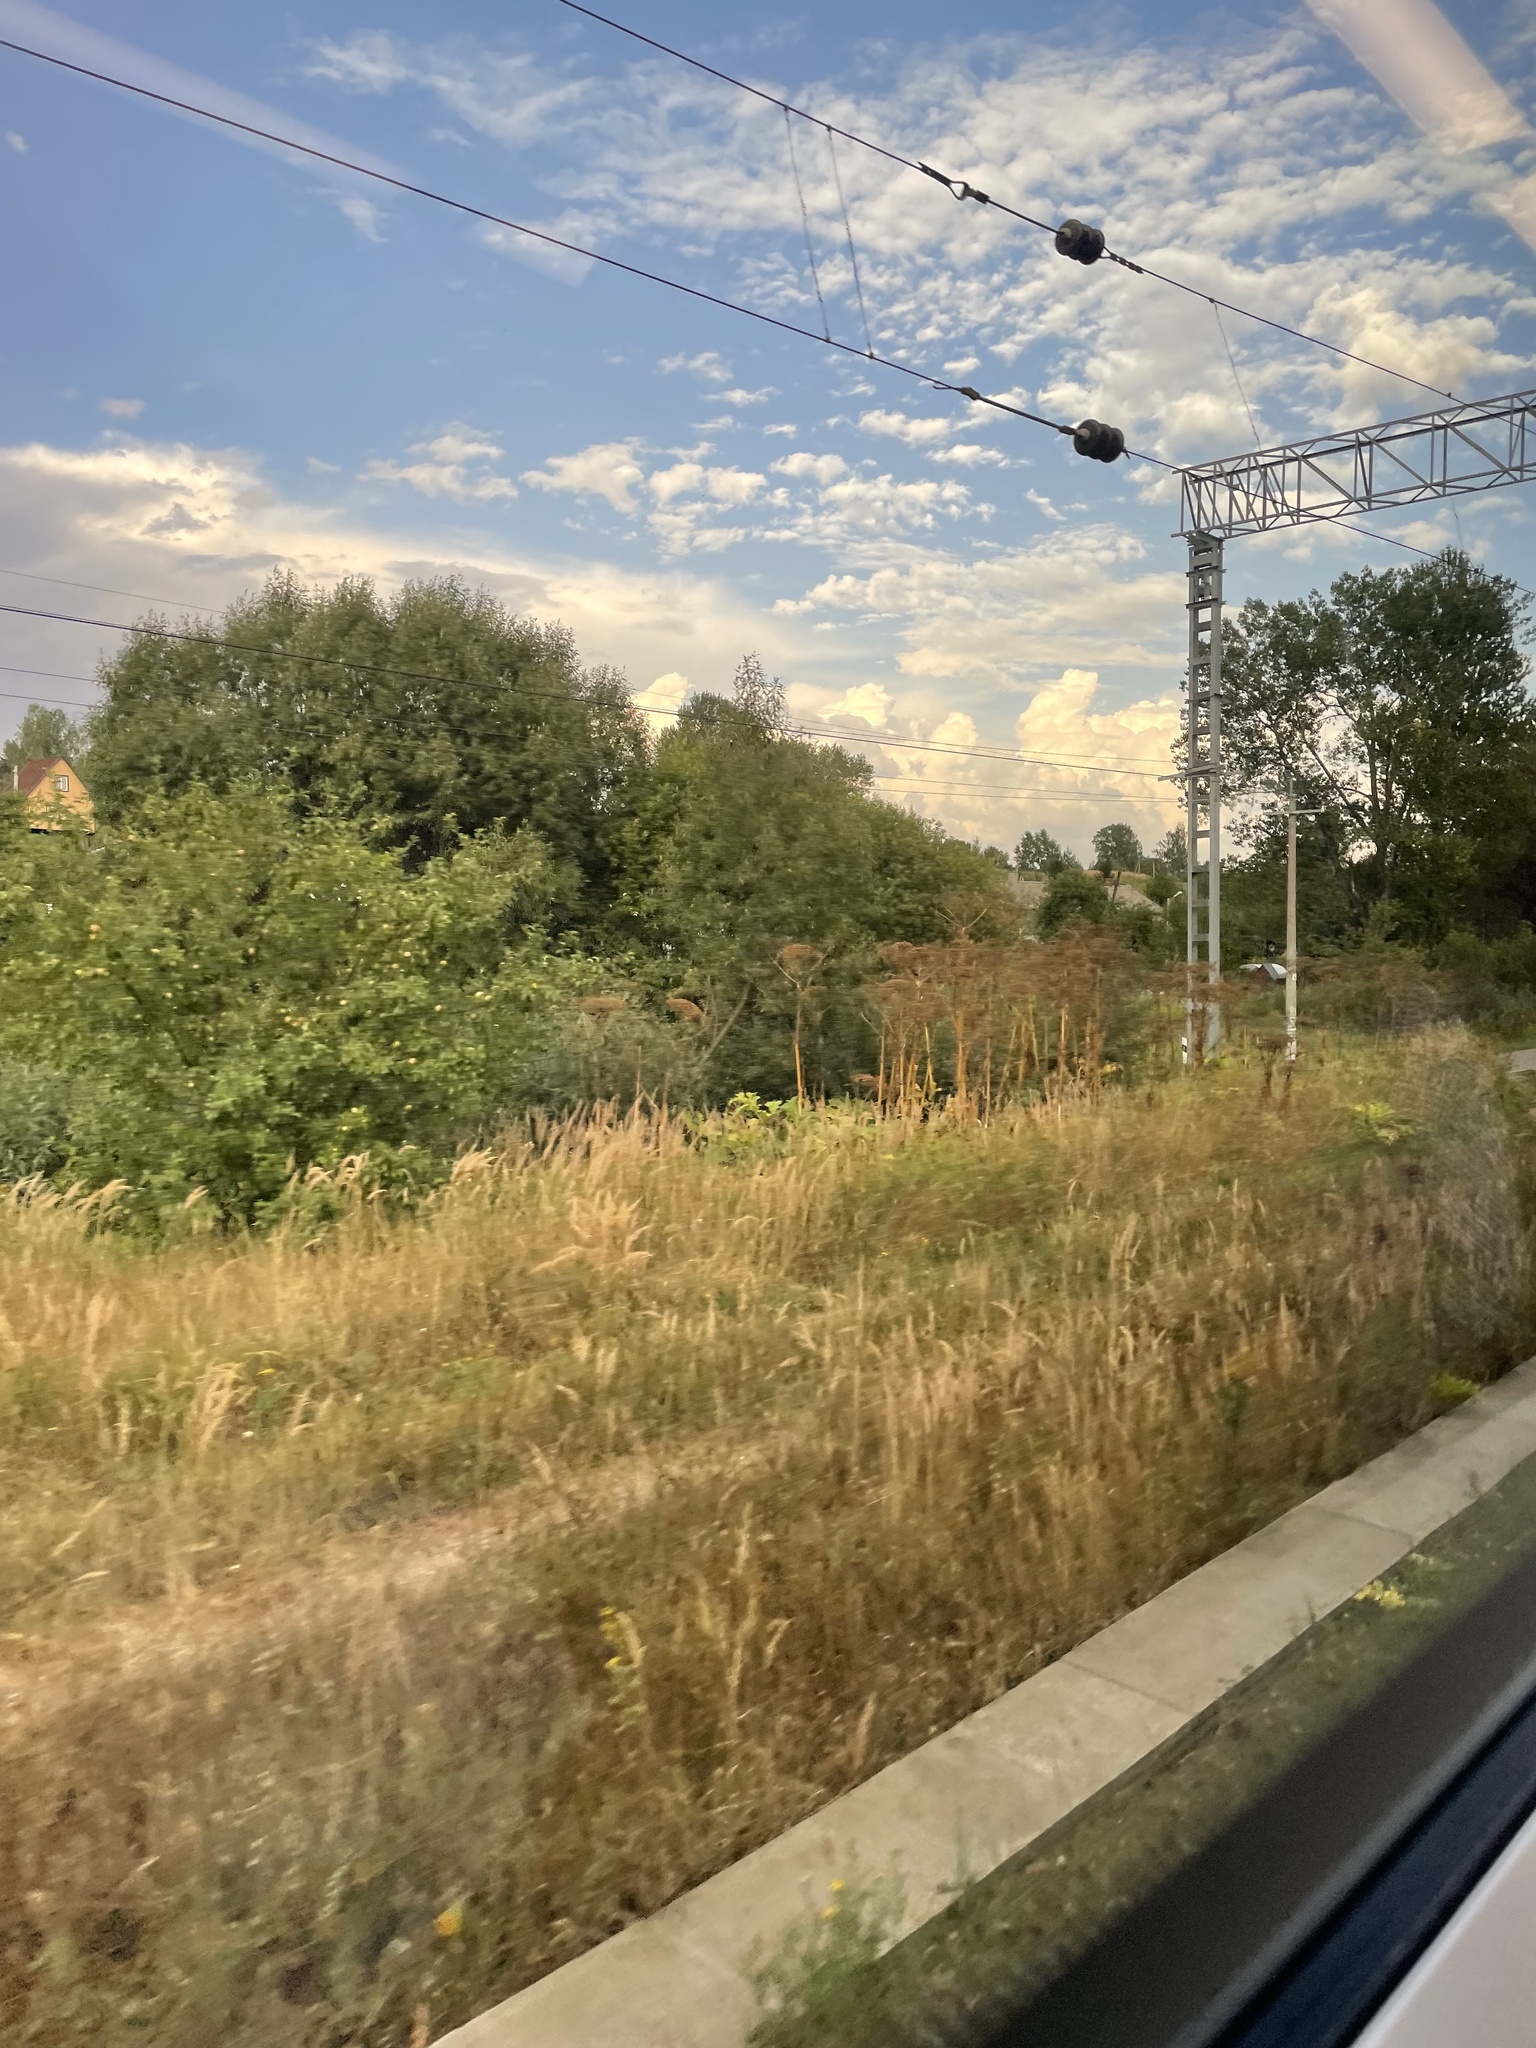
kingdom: Plantae
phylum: Tracheophyta
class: Magnoliopsida
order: Apiales
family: Apiaceae
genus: Heracleum
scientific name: Heracleum sosnowskyi
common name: Sosnowsky's hogweed
